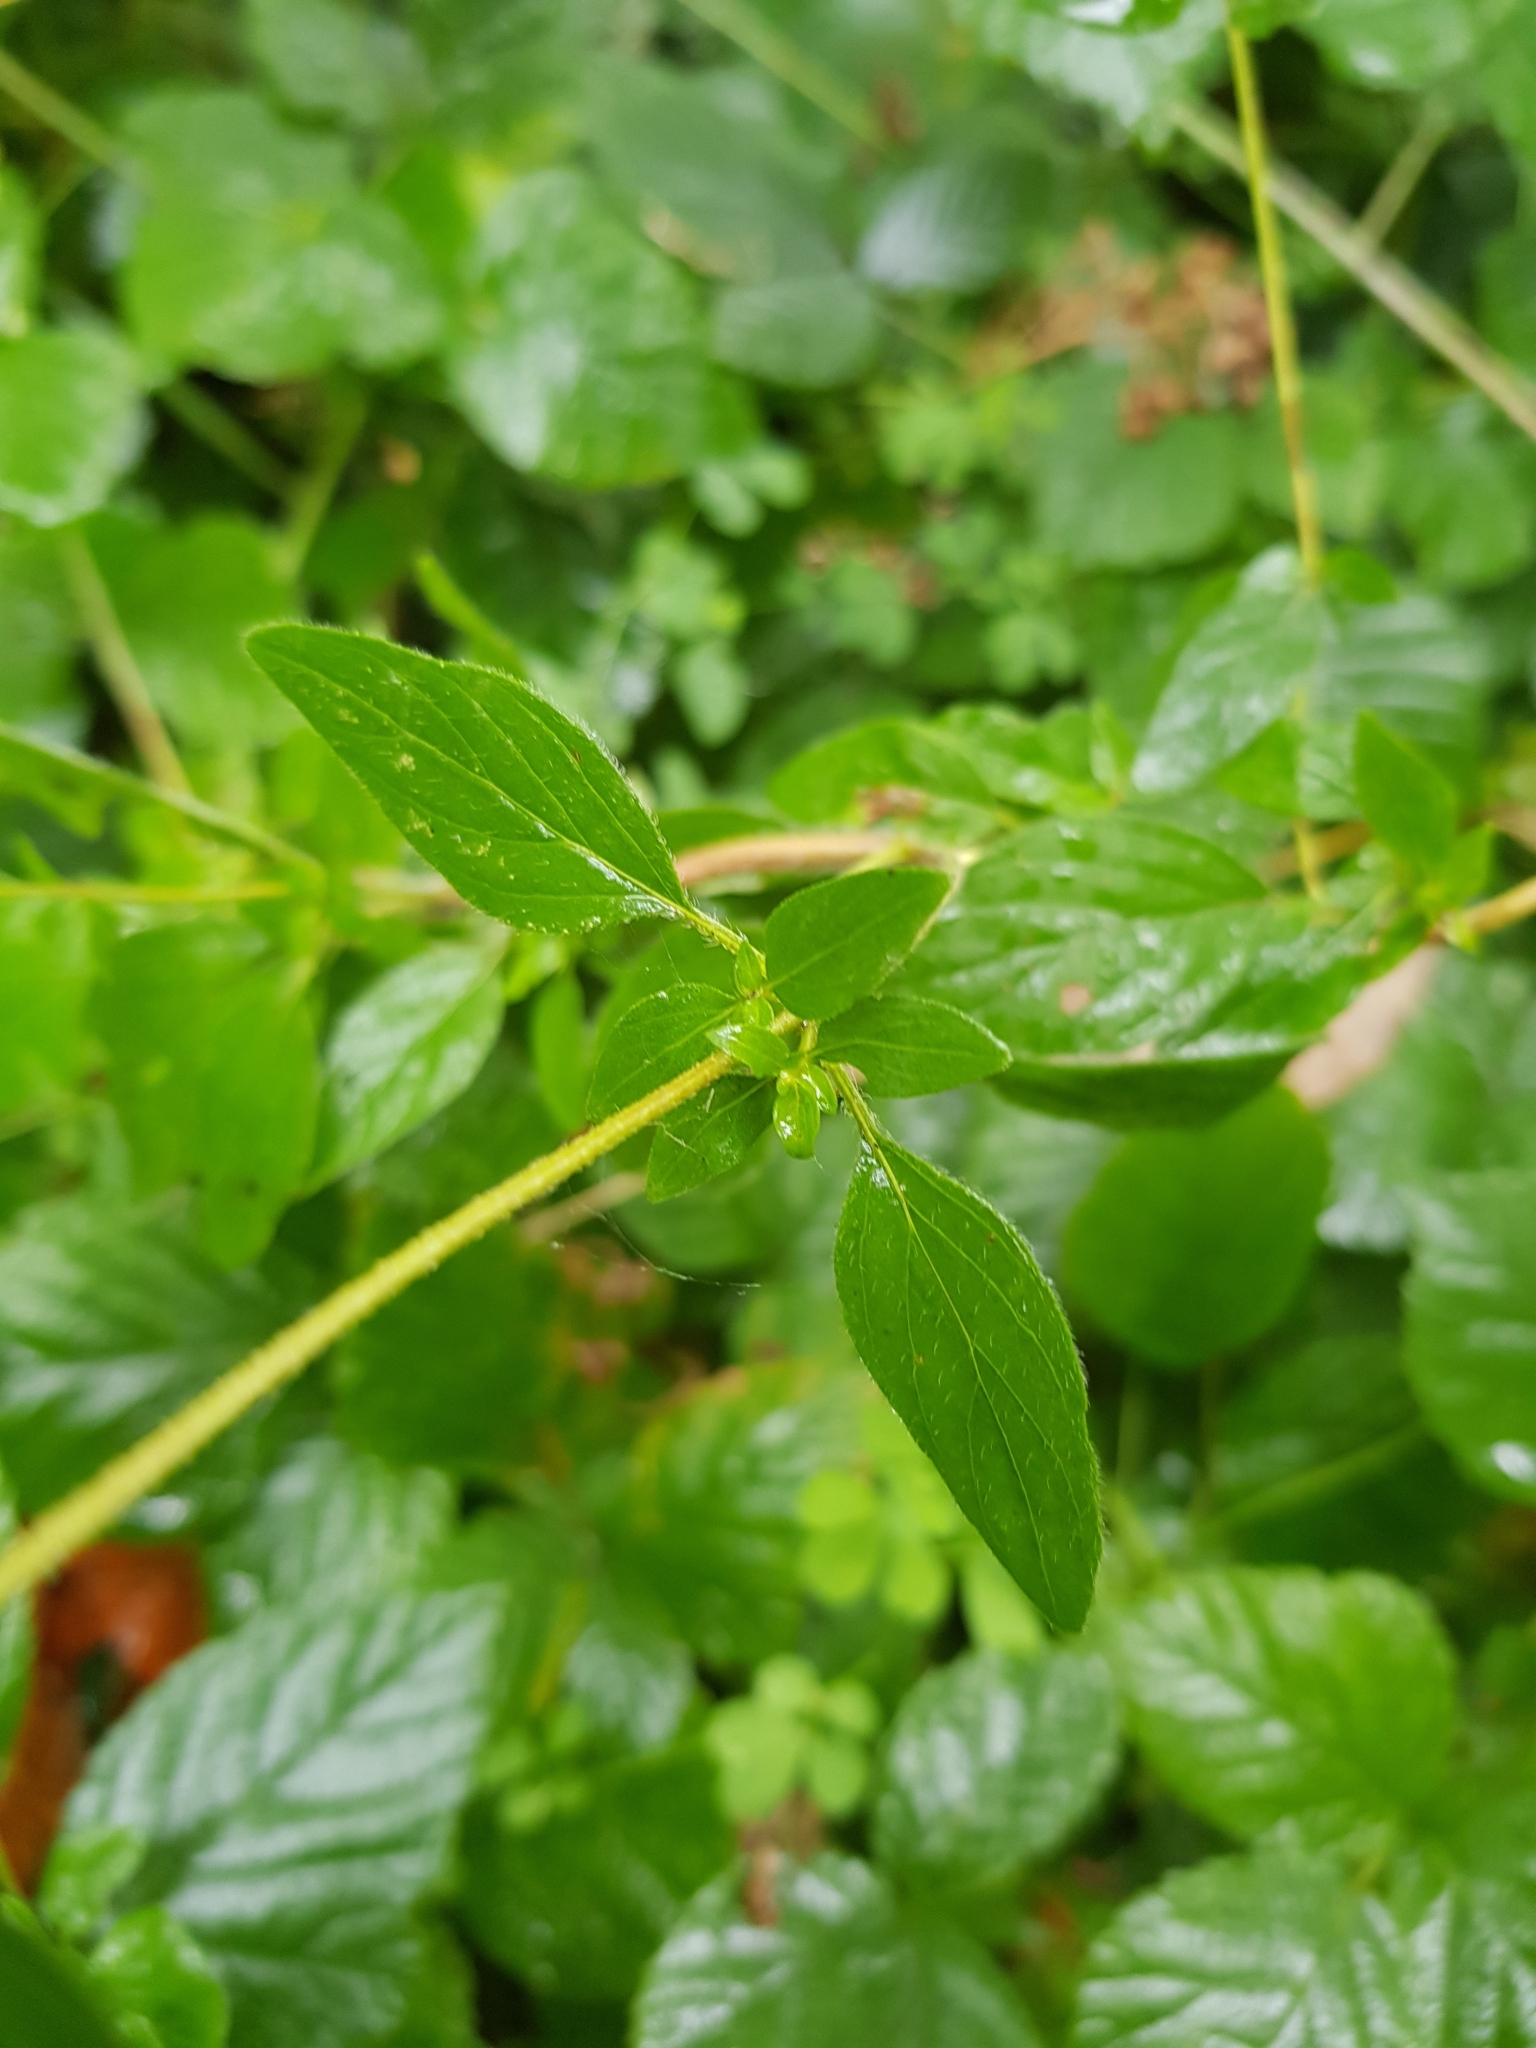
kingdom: Plantae
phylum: Tracheophyta
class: Magnoliopsida
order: Lamiales
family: Lamiaceae
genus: Origanum
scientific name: Origanum vulgare
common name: Wild marjoram
